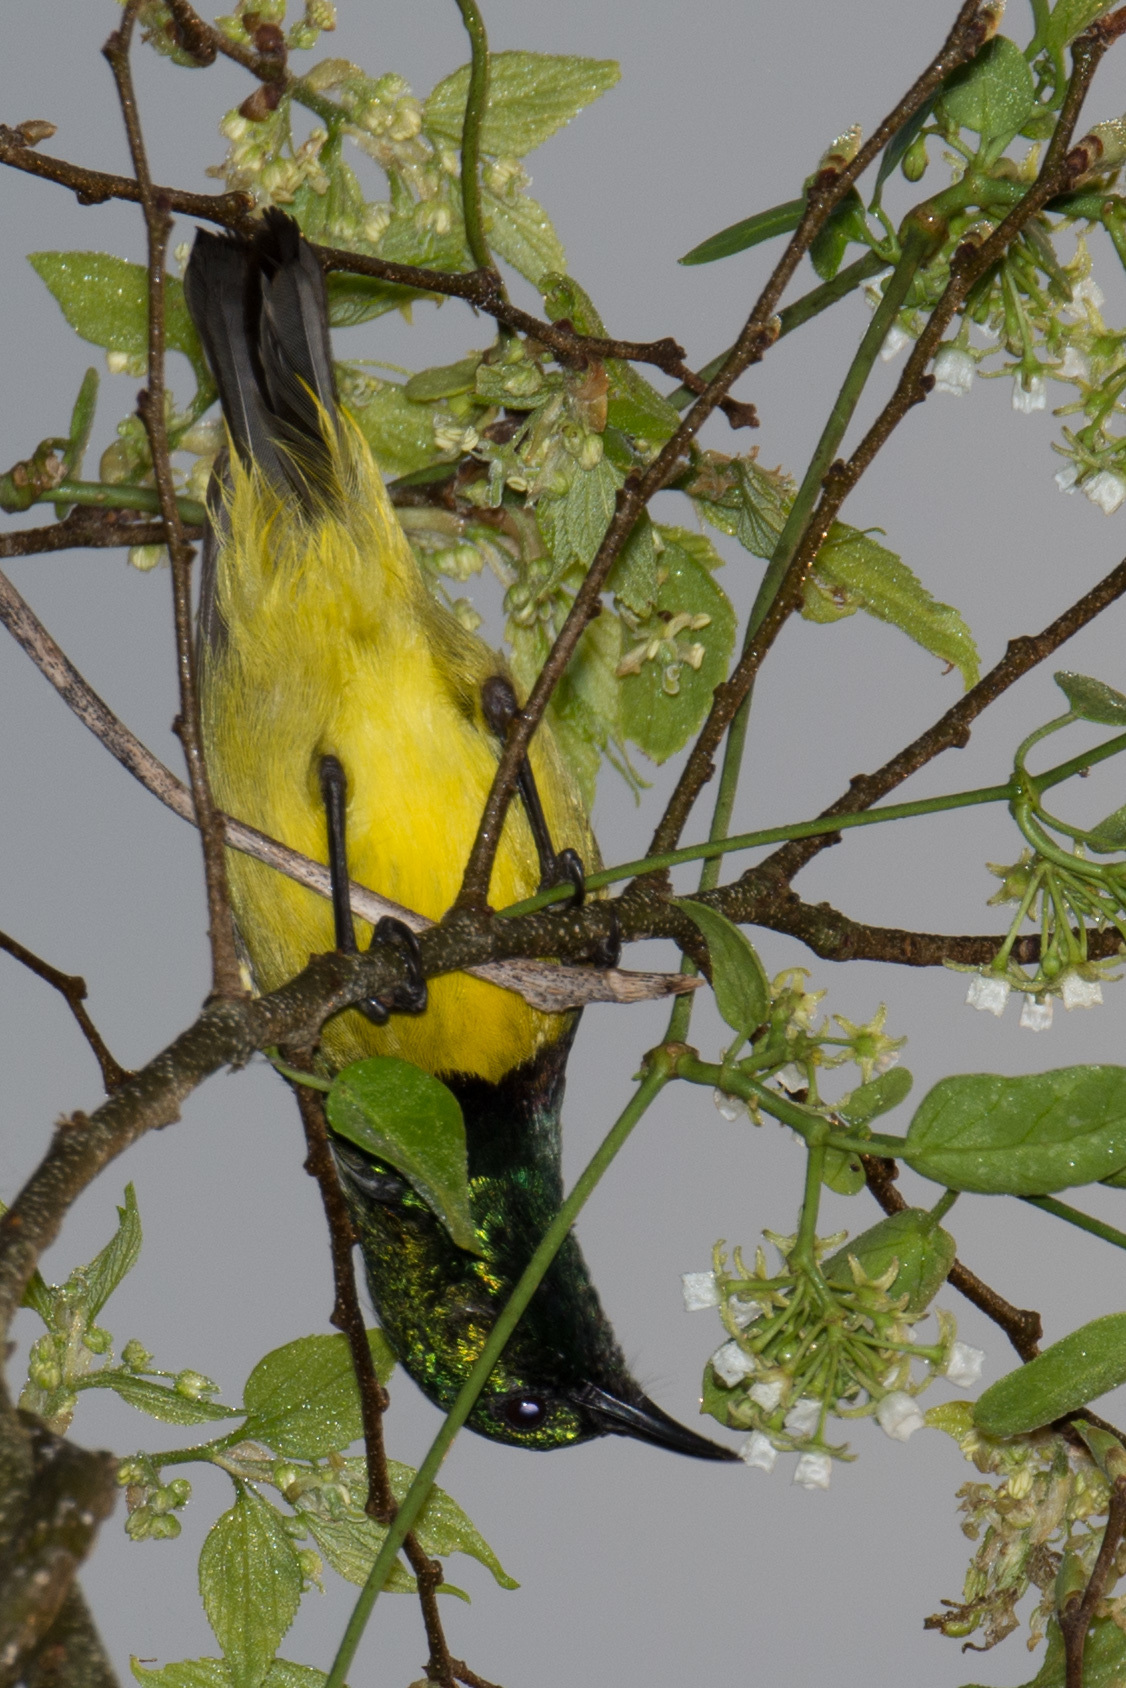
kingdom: Animalia
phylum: Chordata
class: Aves
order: Passeriformes
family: Nectariniidae
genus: Hedydipna
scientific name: Hedydipna collaris
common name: Collared sunbird
